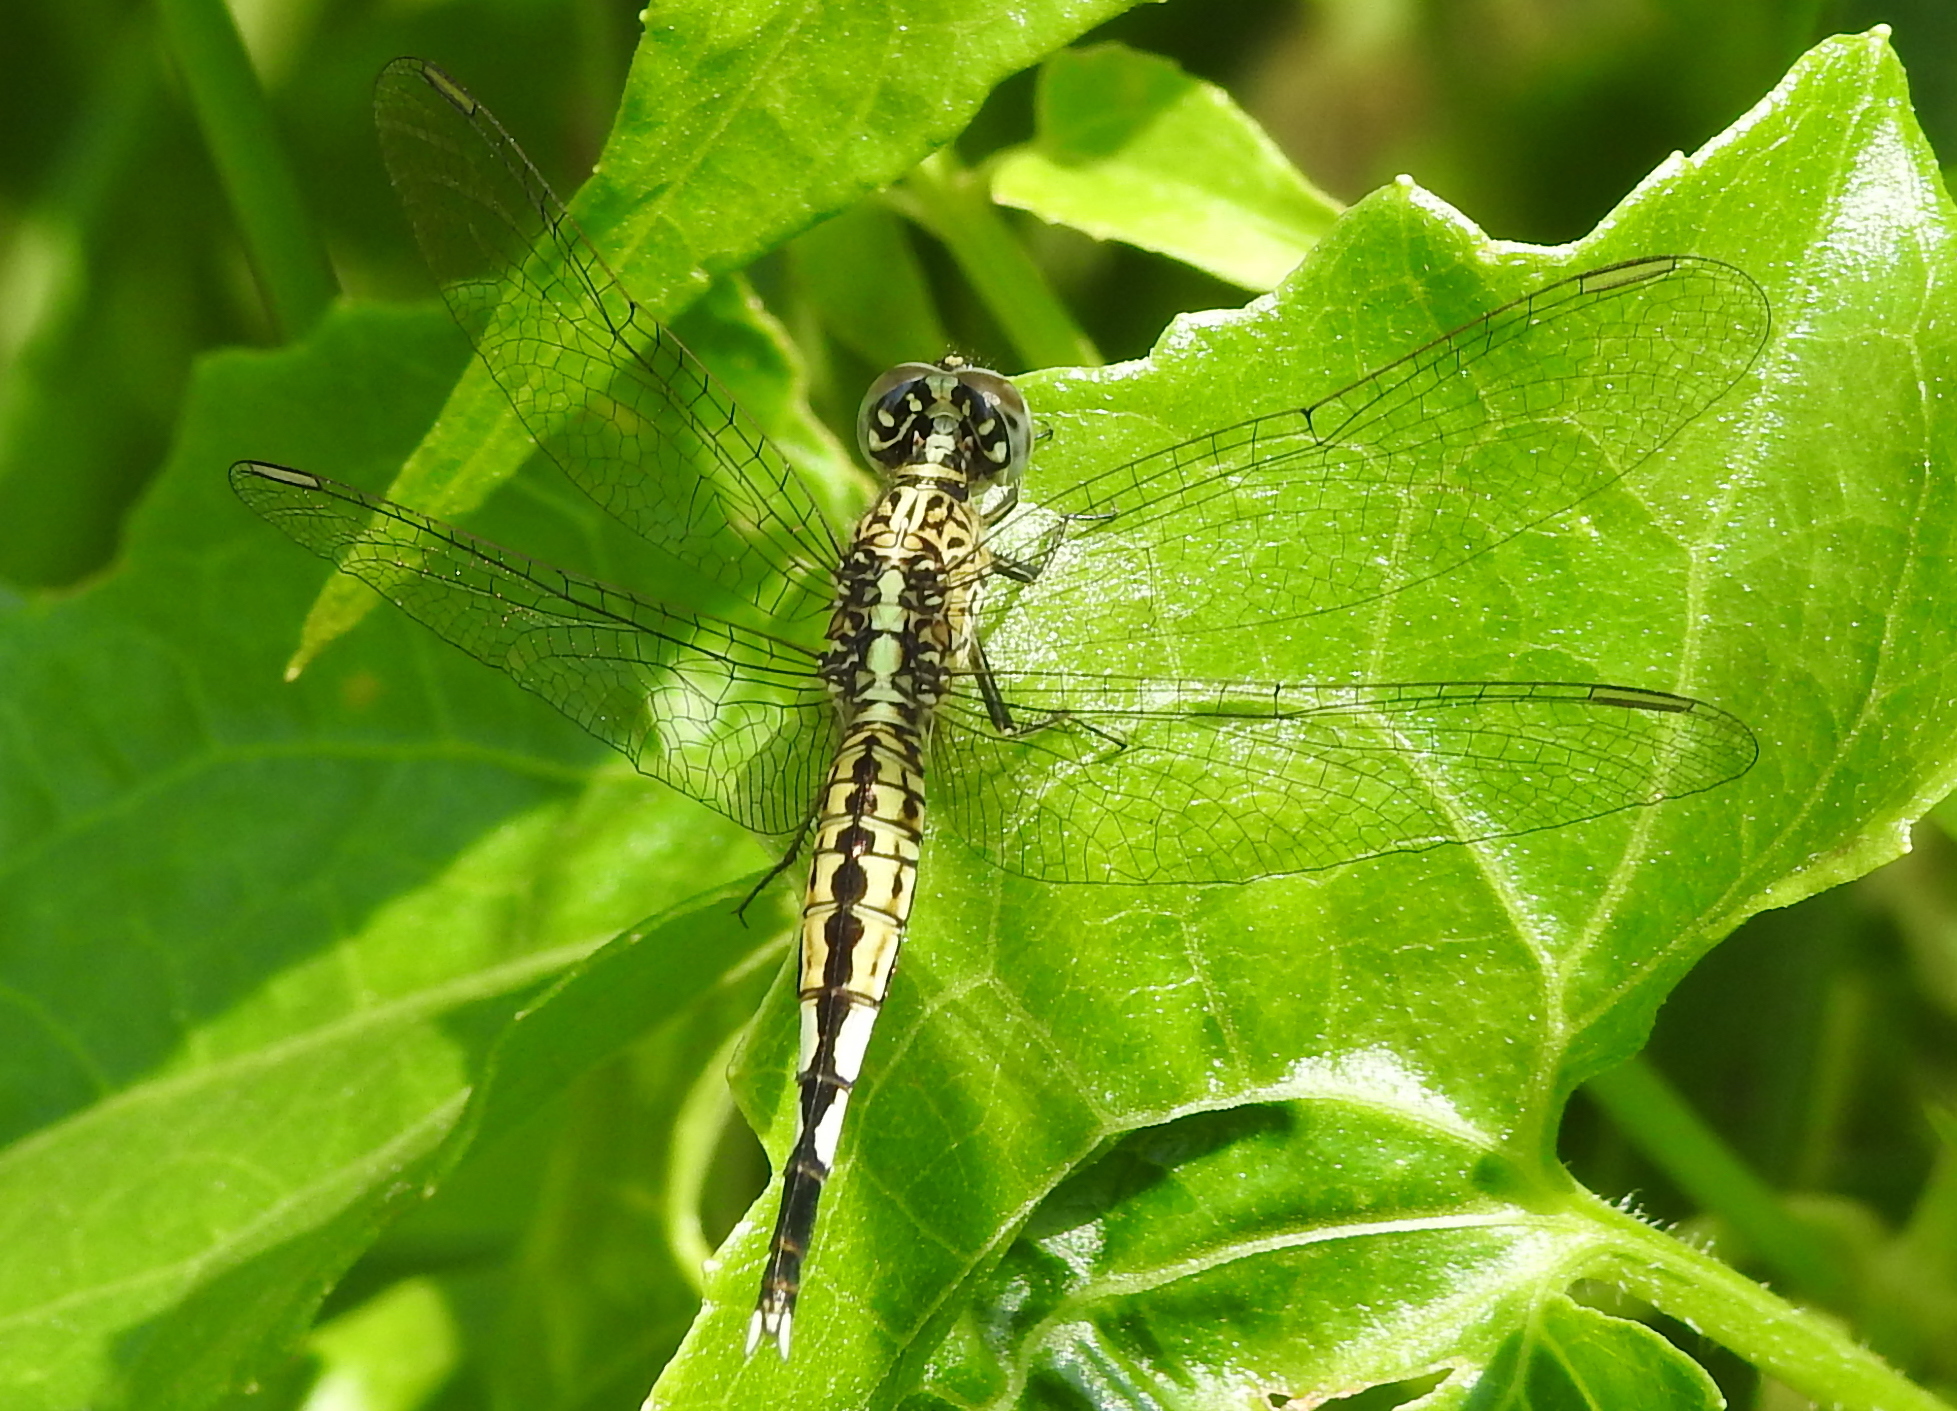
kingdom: Animalia
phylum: Arthropoda
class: Insecta
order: Odonata
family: Libellulidae
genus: Acisoma
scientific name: Acisoma panorpoides
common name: Asian pintail
